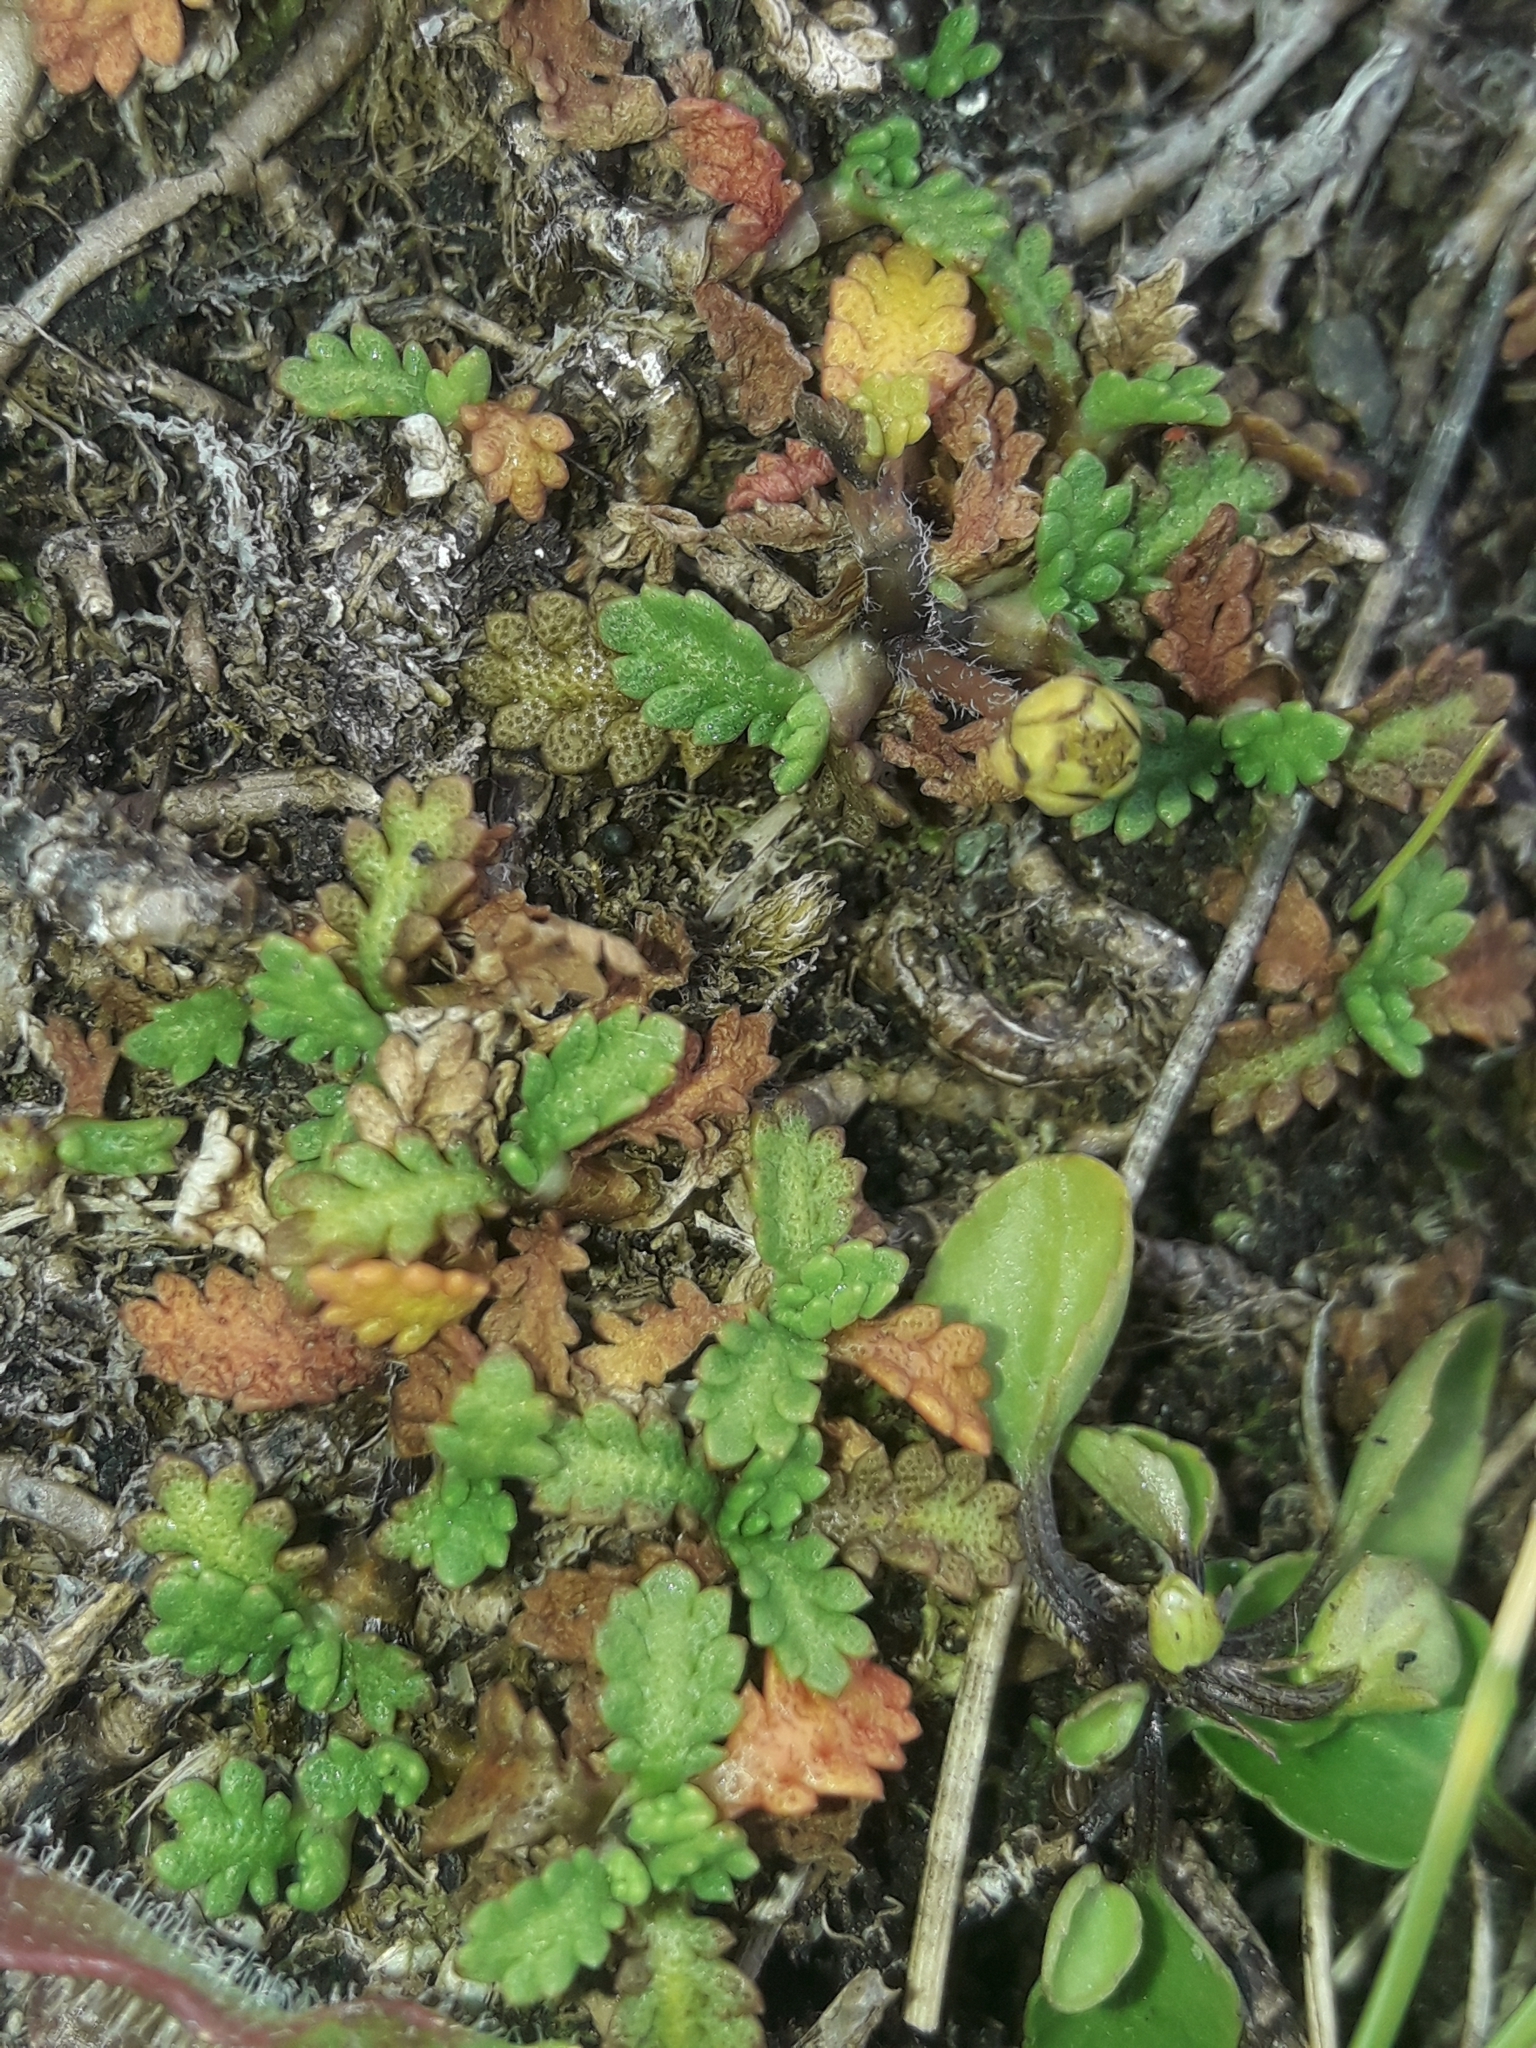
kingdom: Plantae
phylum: Tracheophyta
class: Magnoliopsida
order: Asterales
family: Asteraceae
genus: Leptinella
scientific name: Leptinella dioica
